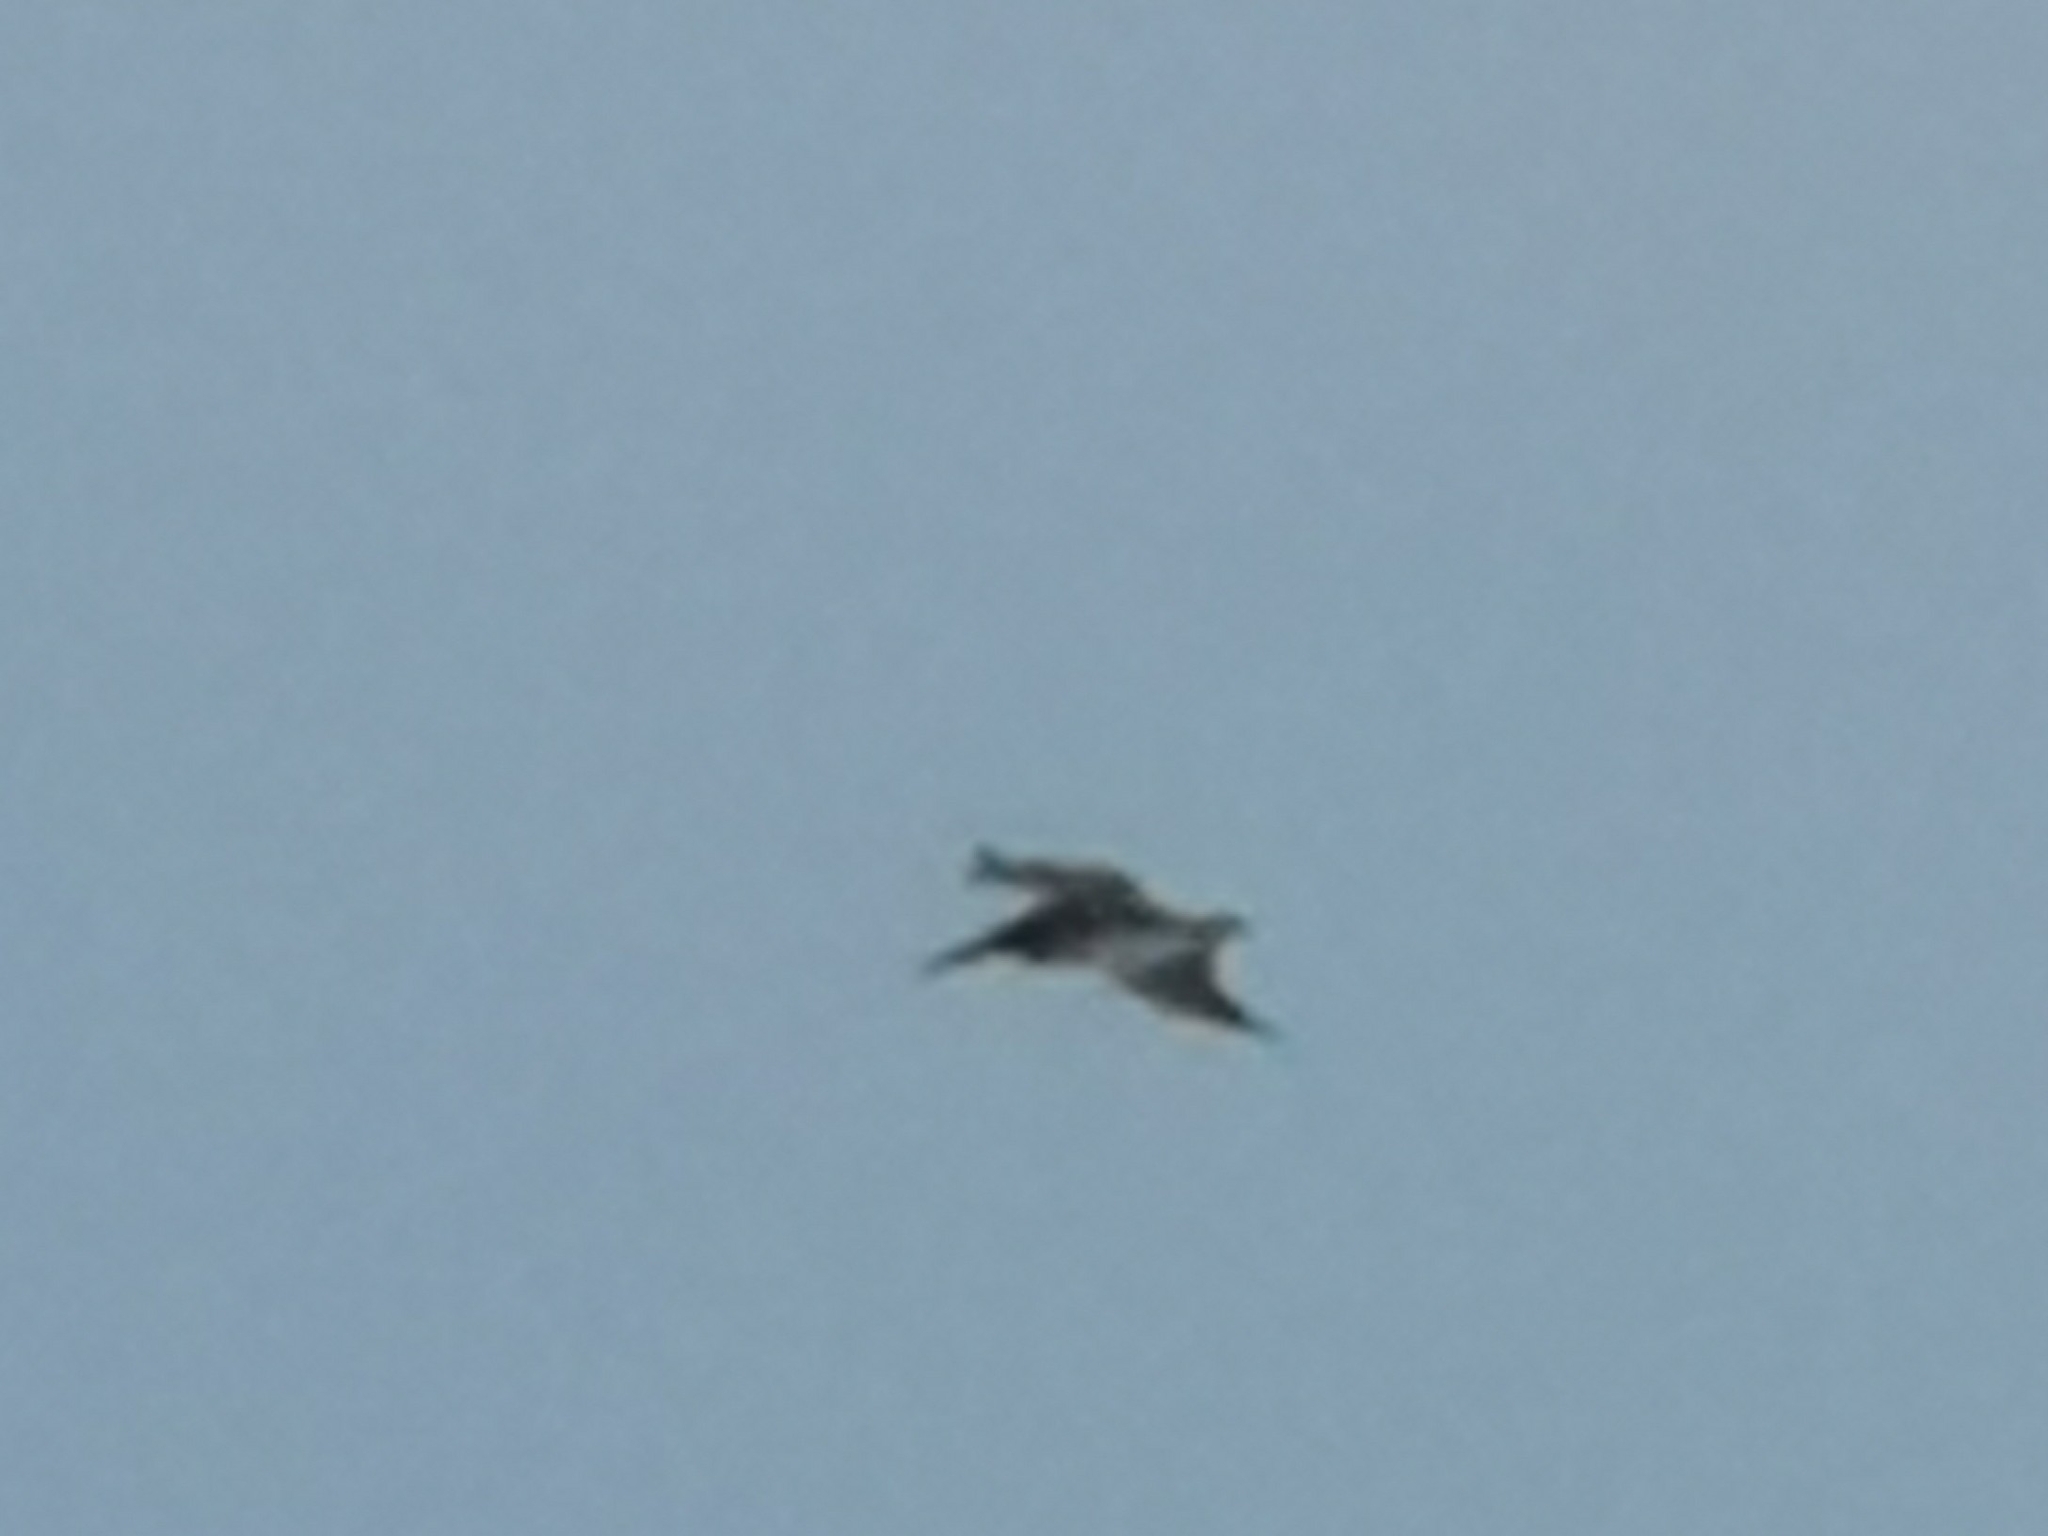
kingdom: Animalia
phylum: Chordata
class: Aves
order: Pelecaniformes
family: Pelecanidae
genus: Pelecanus
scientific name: Pelecanus occidentalis
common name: Brown pelican
